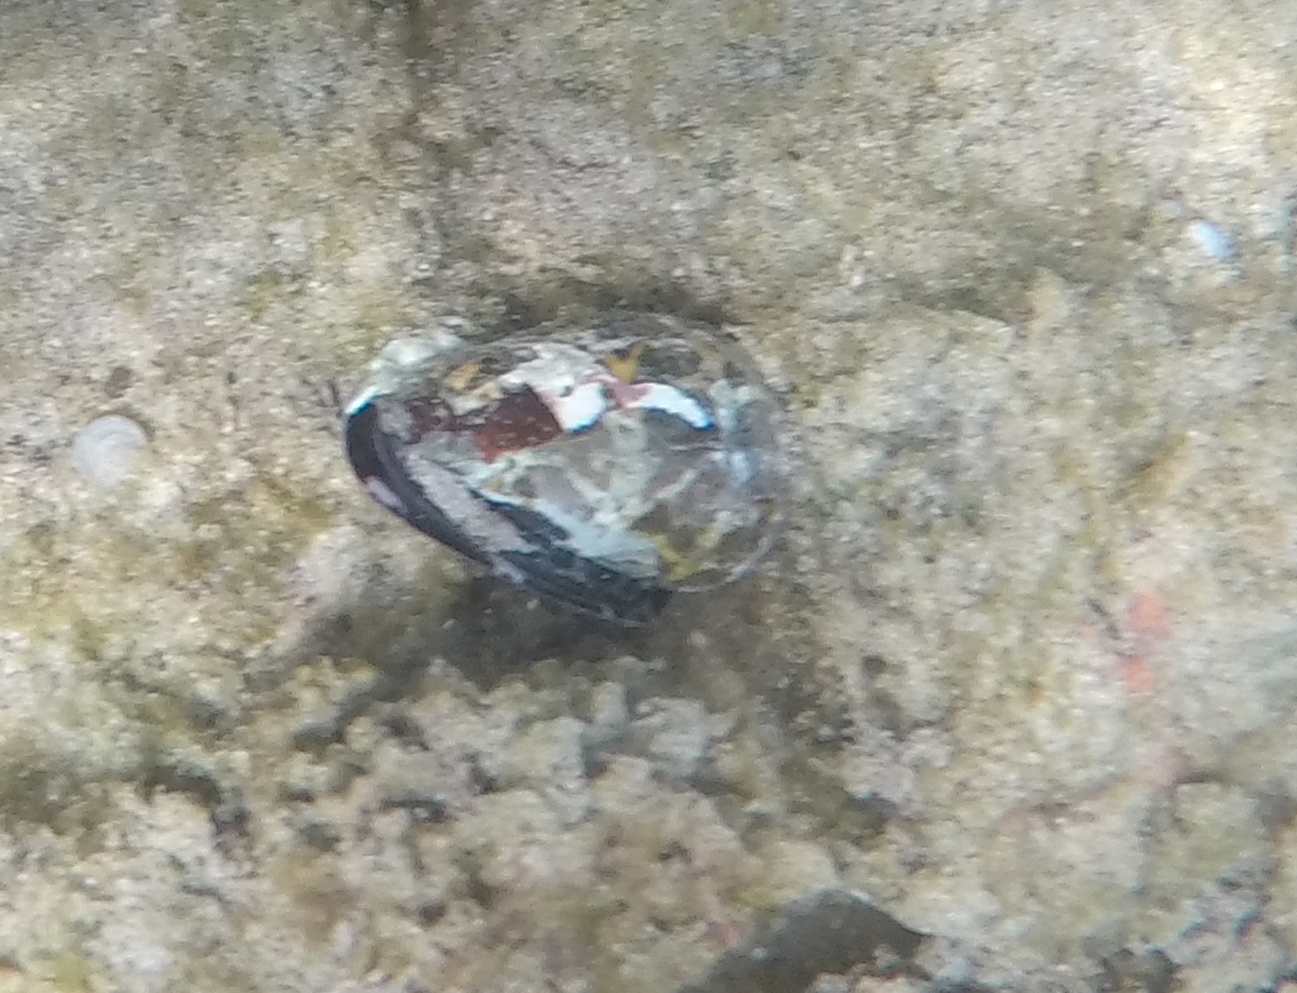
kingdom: Animalia
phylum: Mollusca
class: Gastropoda
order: Neogastropoda
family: Conidae
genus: Conus
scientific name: Conus ebraeus
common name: Hebrew cone
